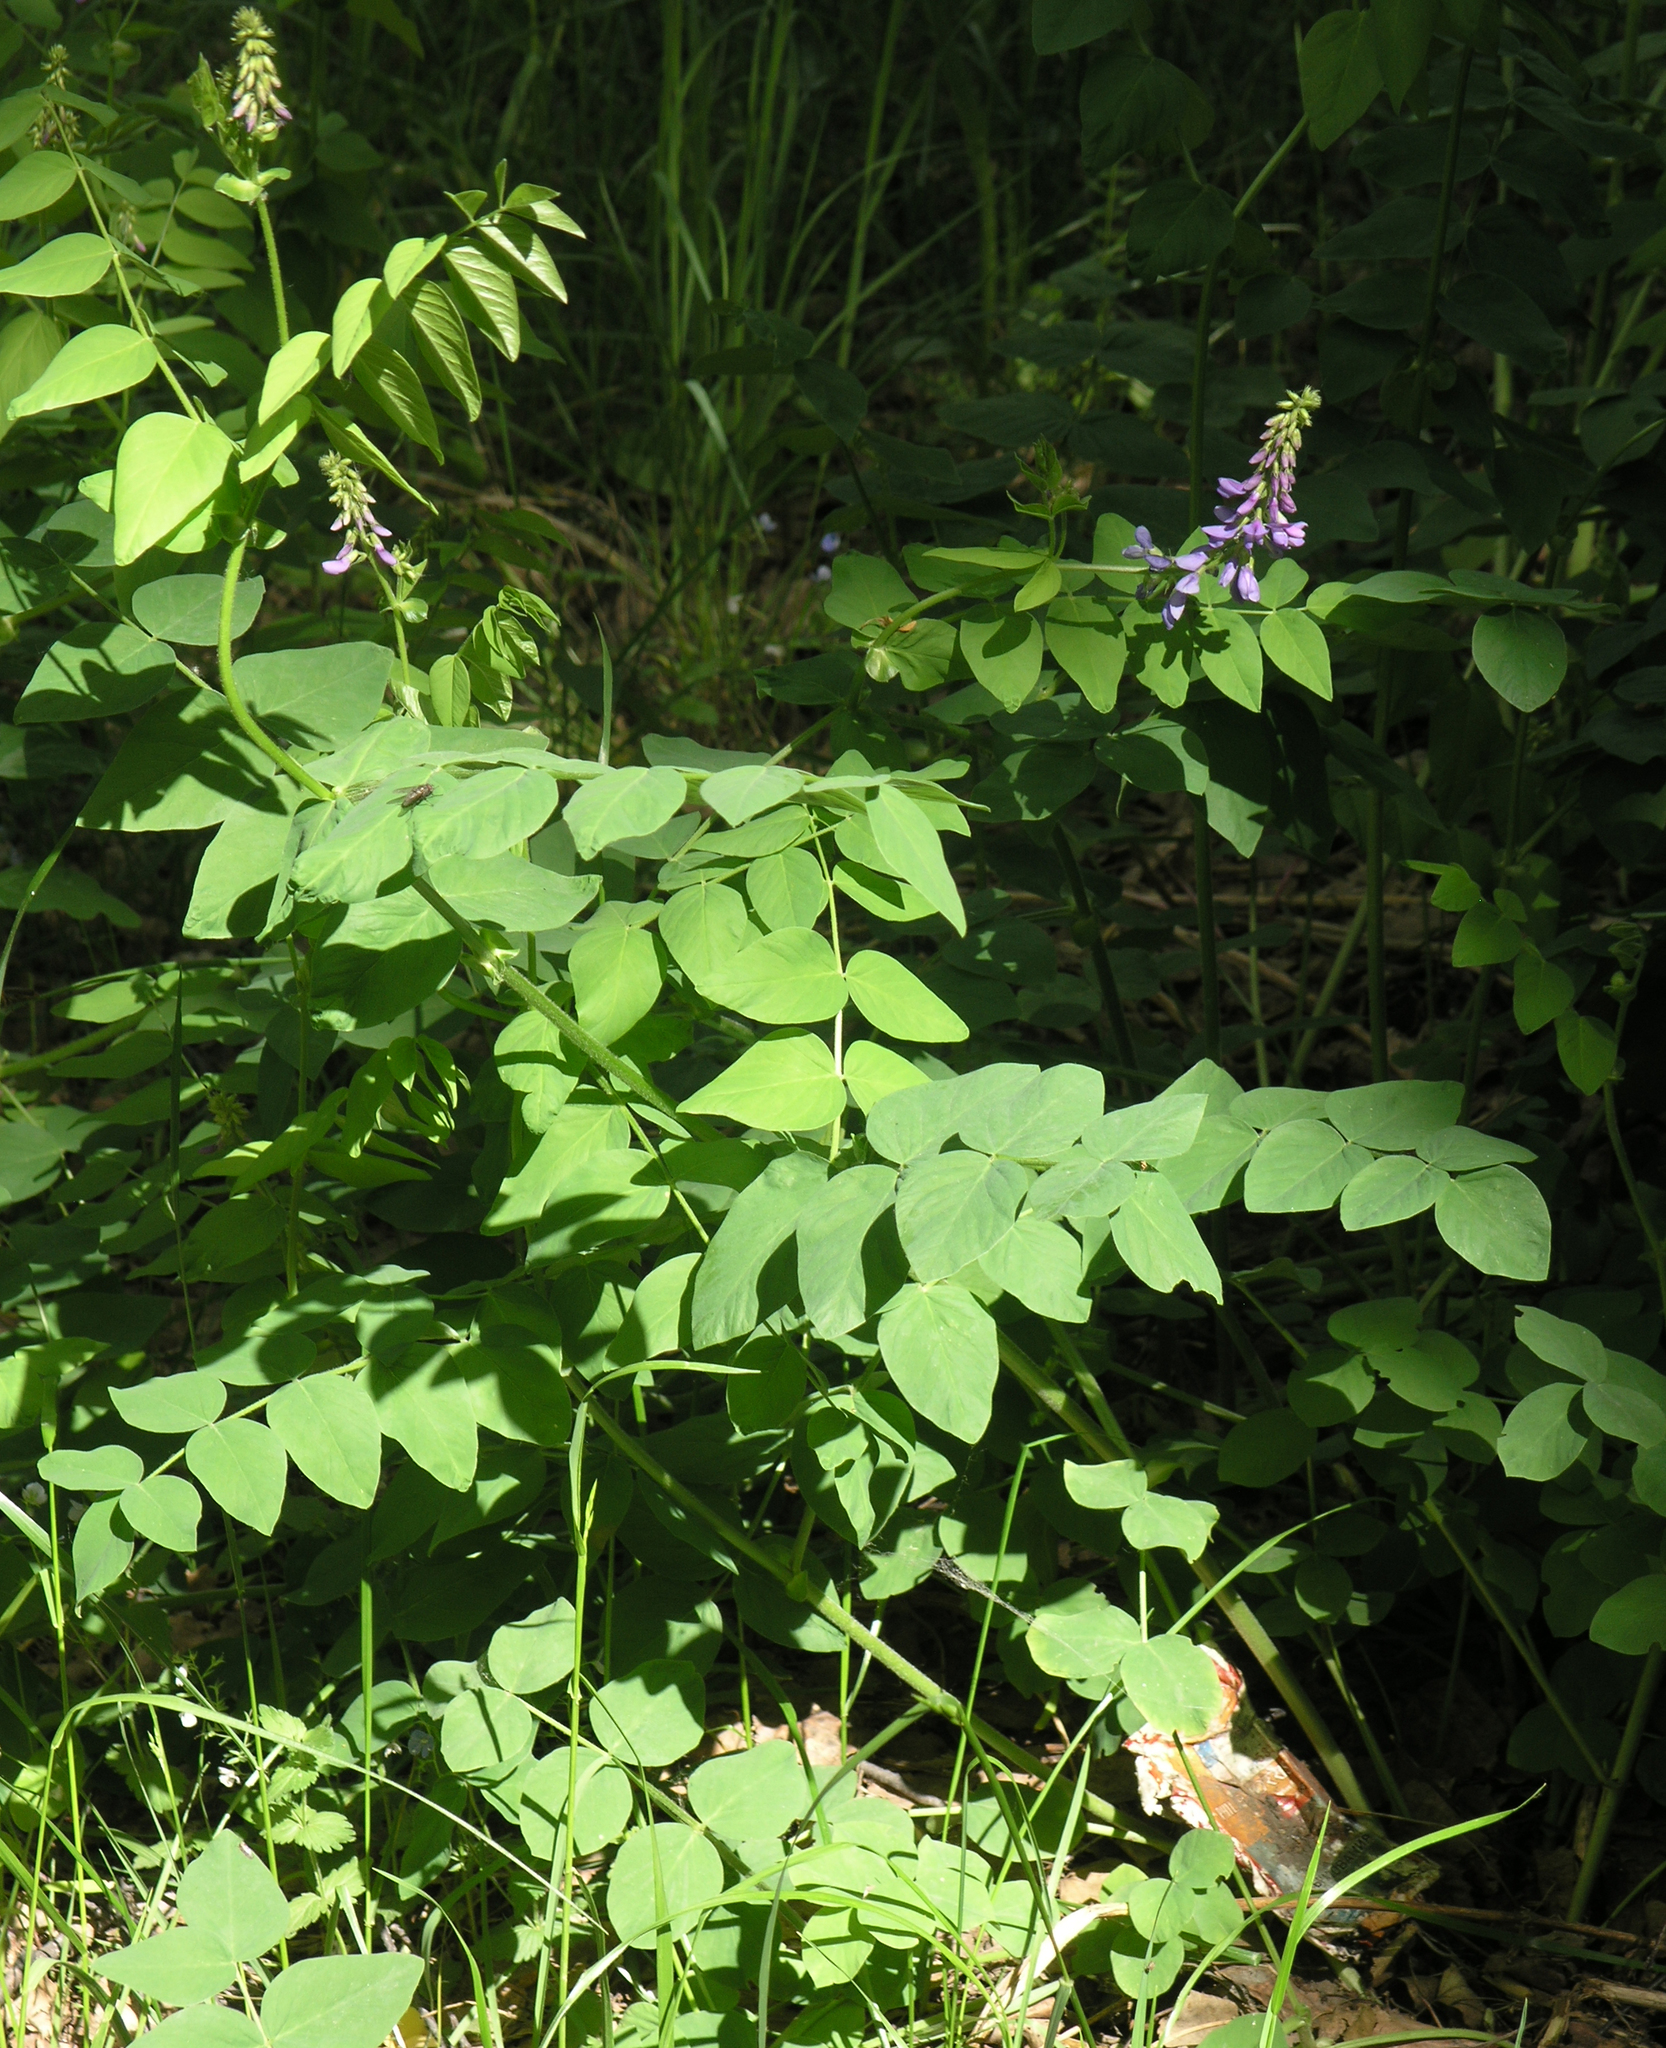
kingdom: Plantae
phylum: Tracheophyta
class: Magnoliopsida
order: Fabales
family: Fabaceae
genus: Galega
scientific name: Galega orientalis
